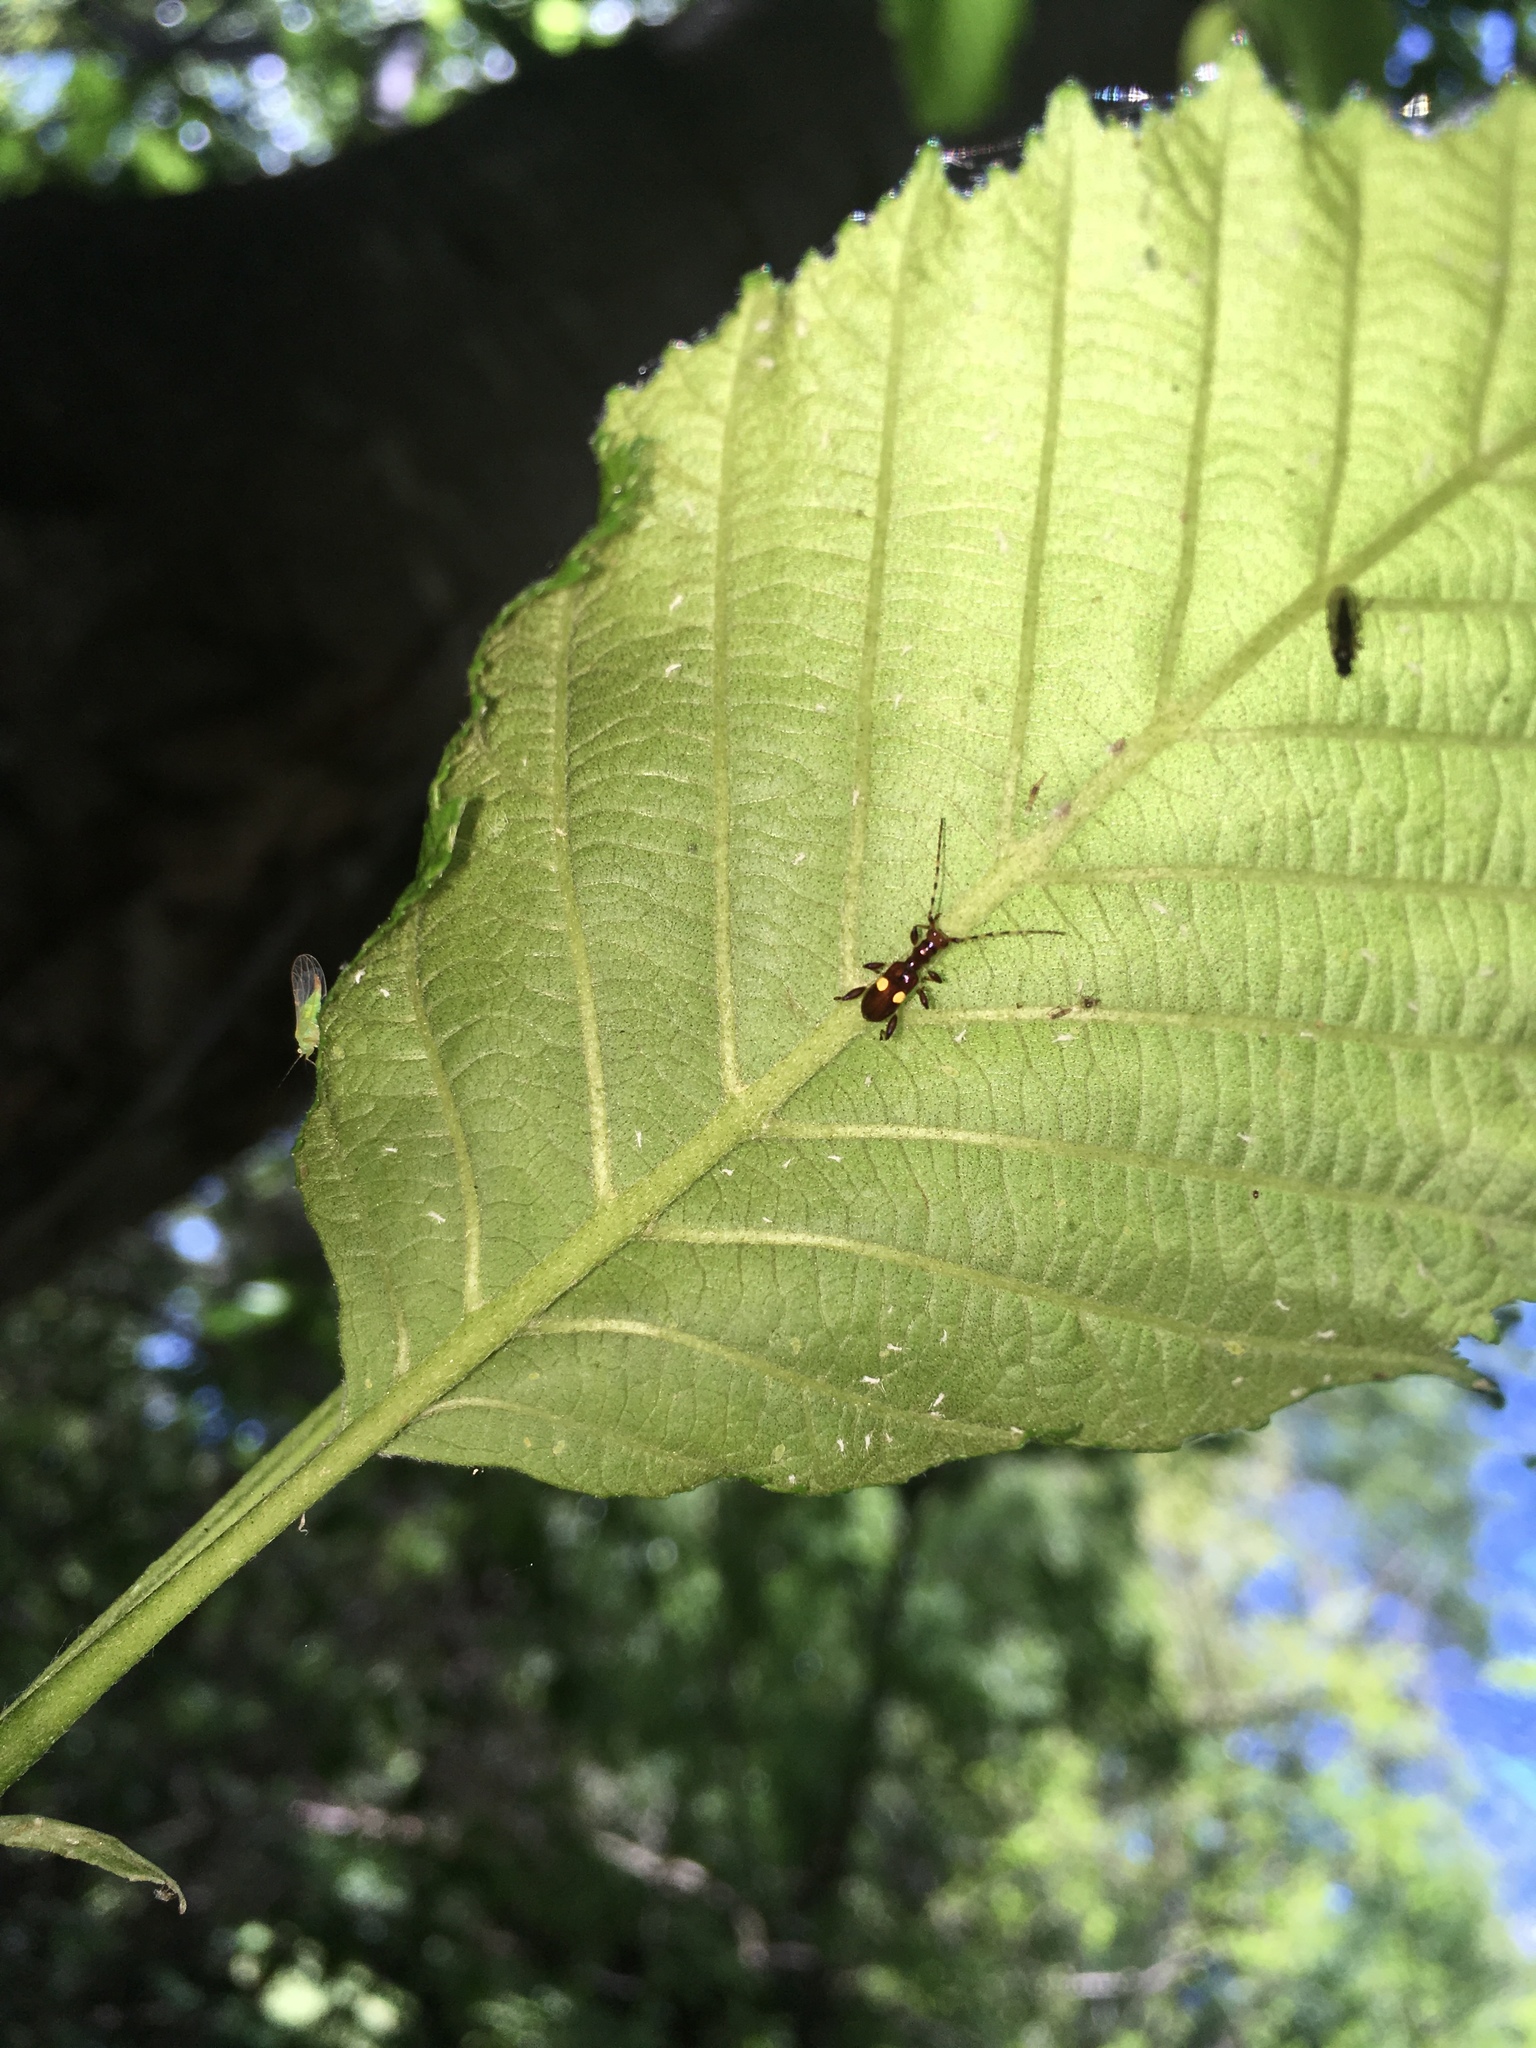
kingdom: Animalia
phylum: Arthropoda
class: Insecta
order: Coleoptera
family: Cerambycidae
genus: Zorion
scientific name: Zorion guttigerum
